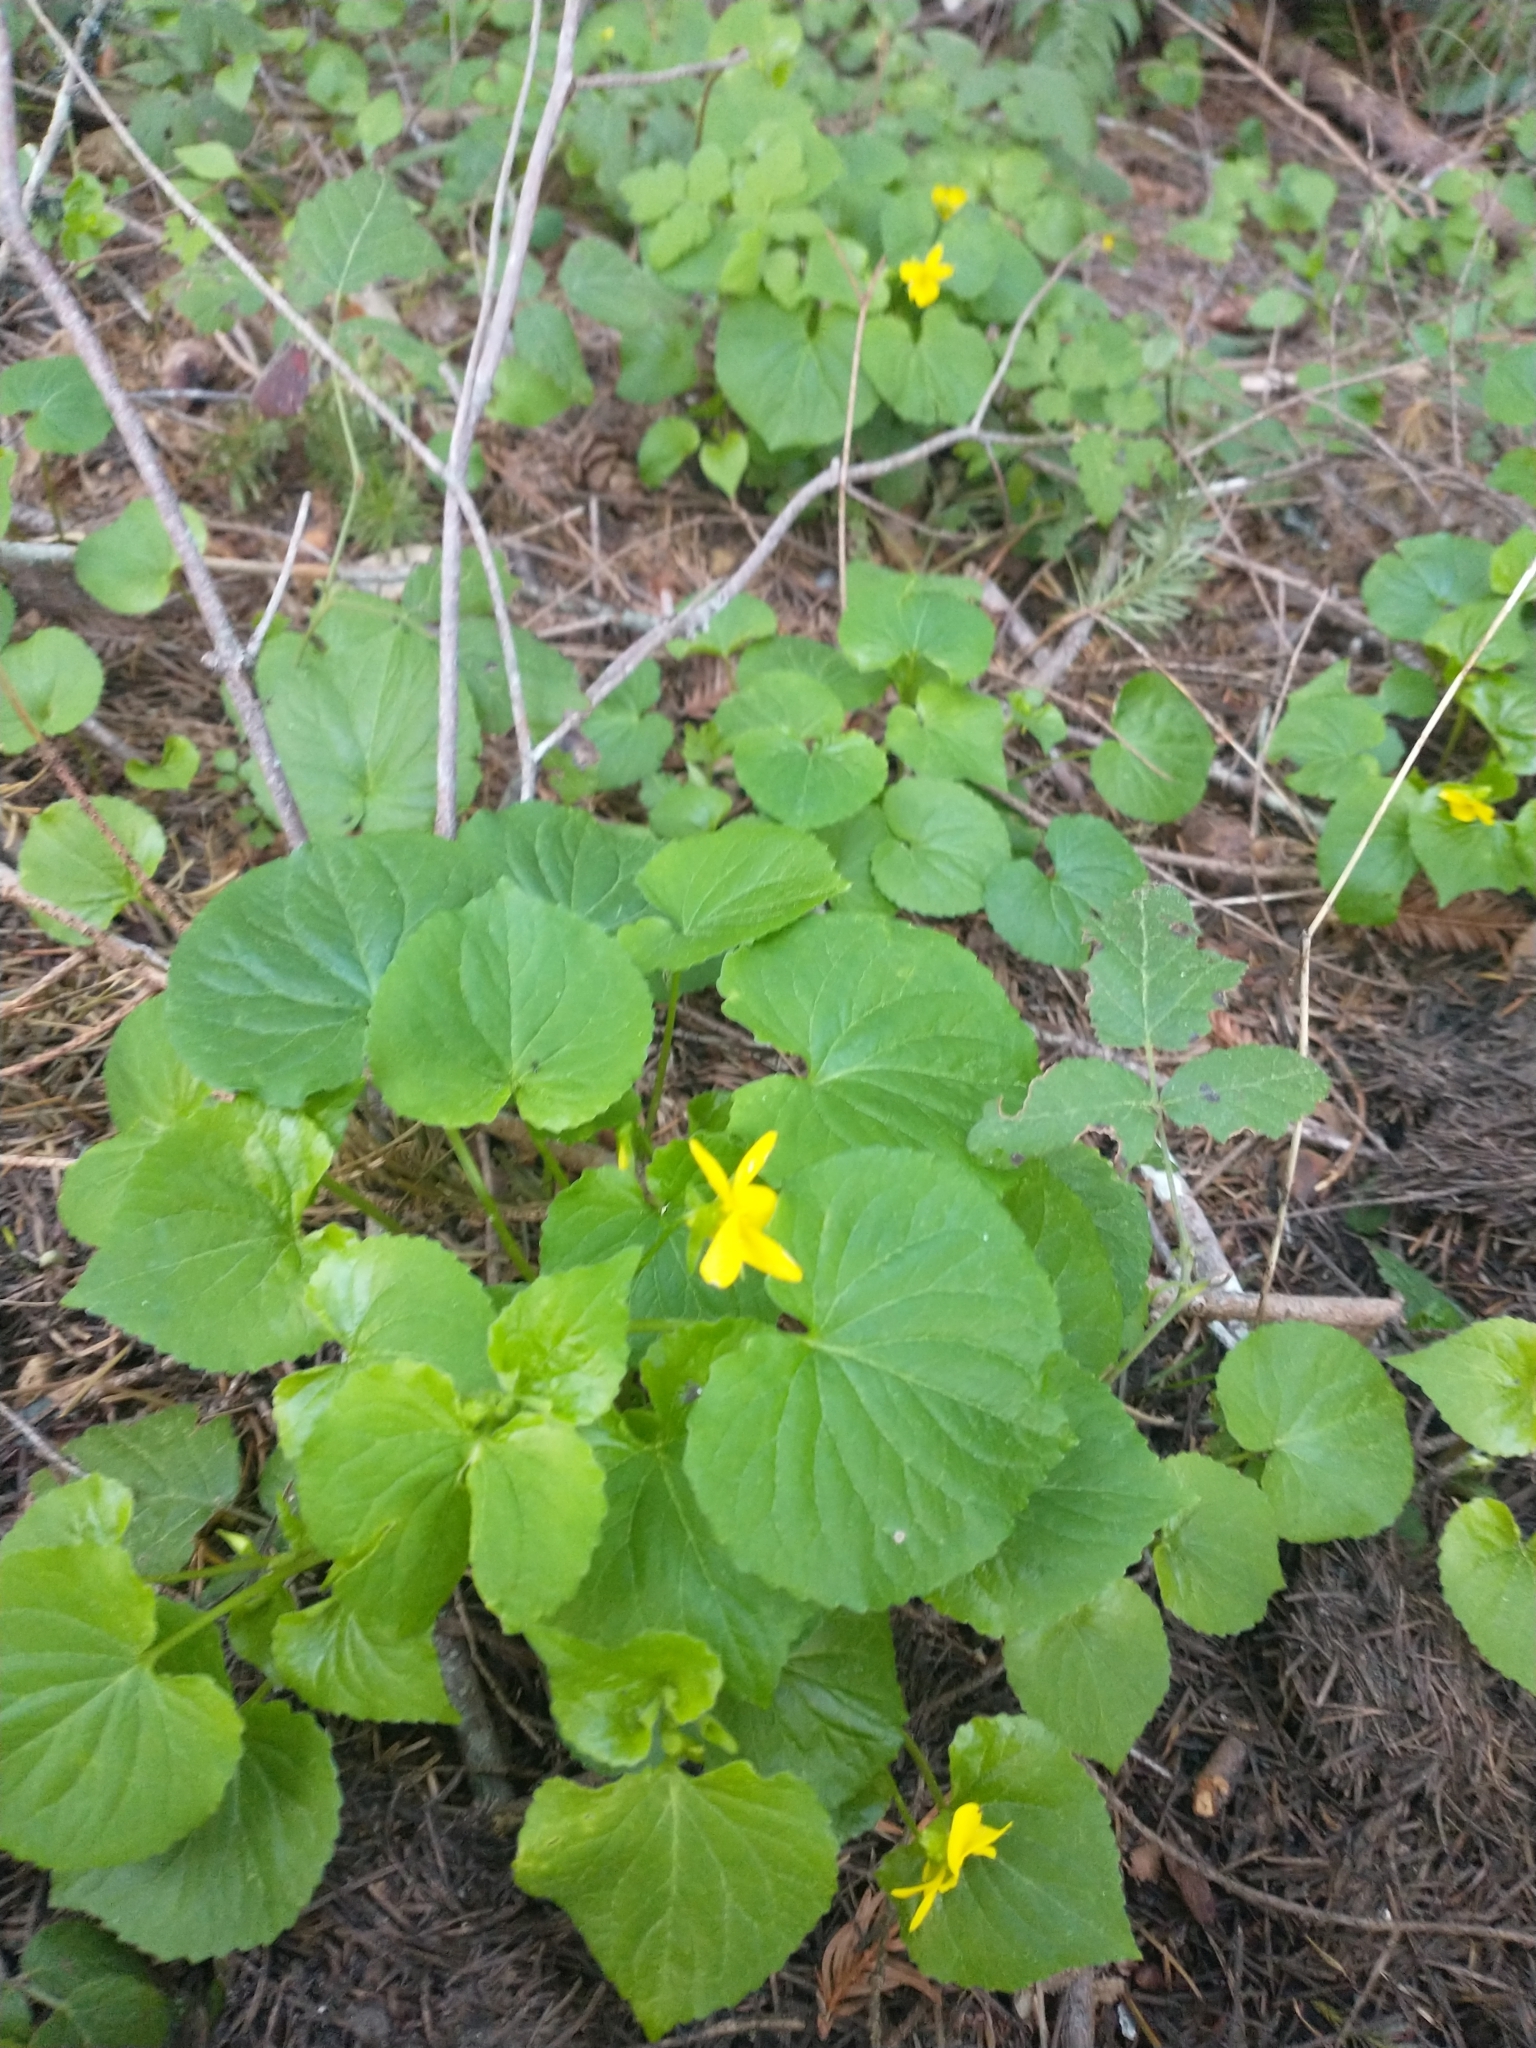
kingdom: Plantae
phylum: Tracheophyta
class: Magnoliopsida
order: Malpighiales
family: Violaceae
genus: Viola
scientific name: Viola glabella
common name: Stream violet
